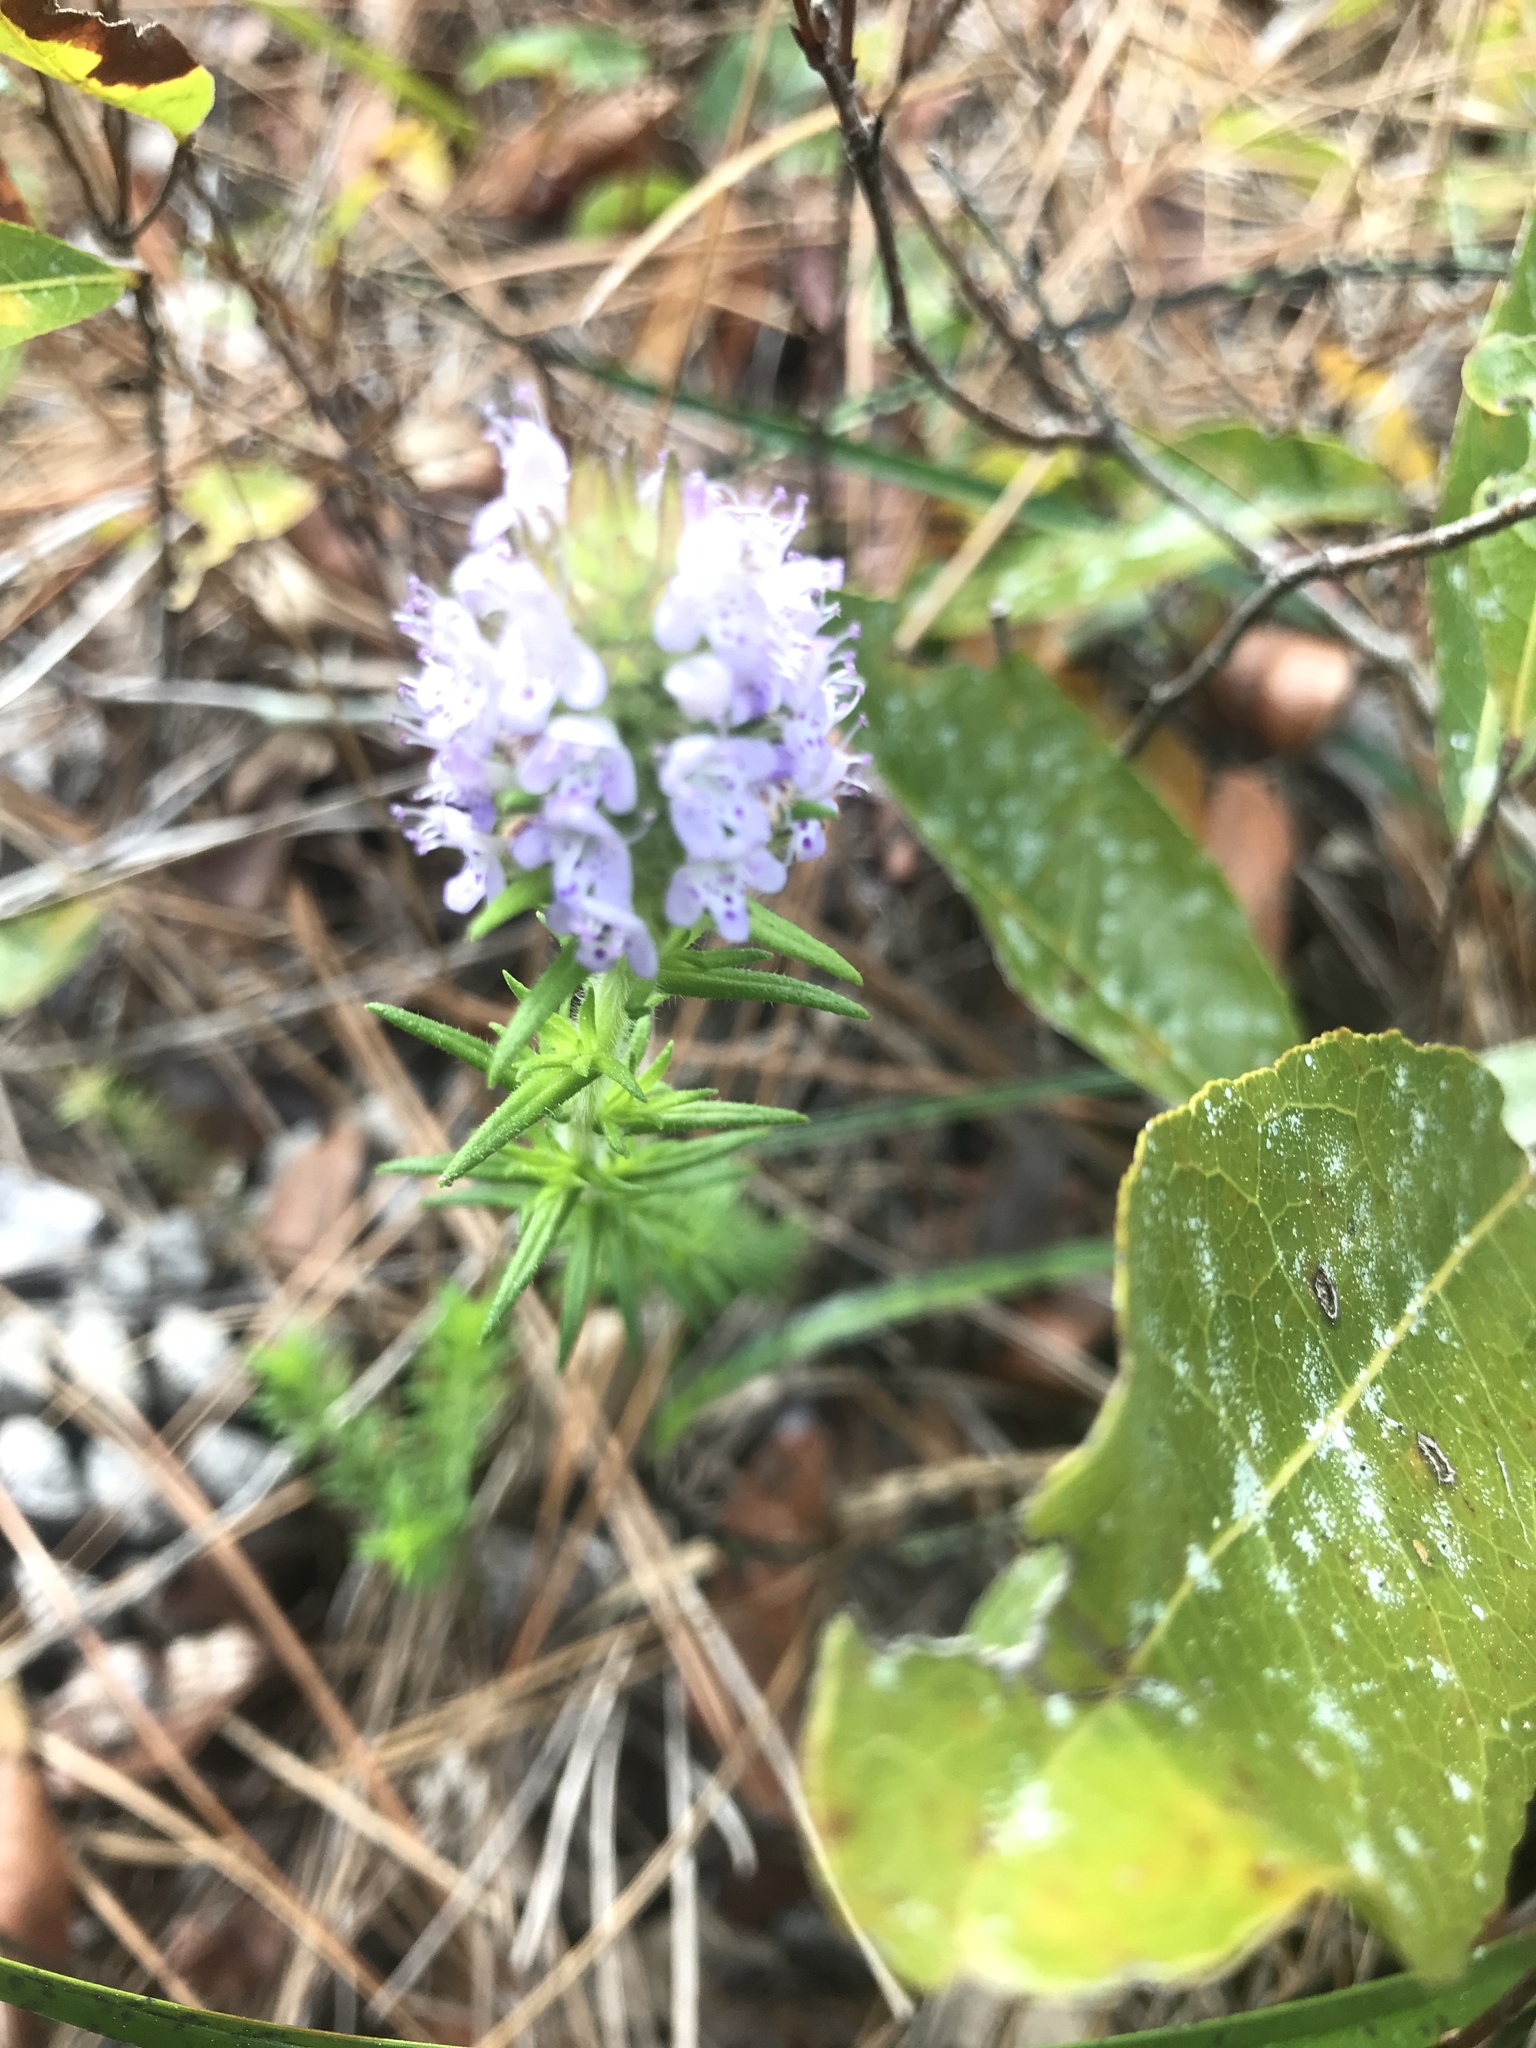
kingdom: Plantae
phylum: Tracheophyta
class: Magnoliopsida
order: Lamiales
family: Lamiaceae
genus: Piloblephis
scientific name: Piloblephis rigida
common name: Wild pennyroyal
